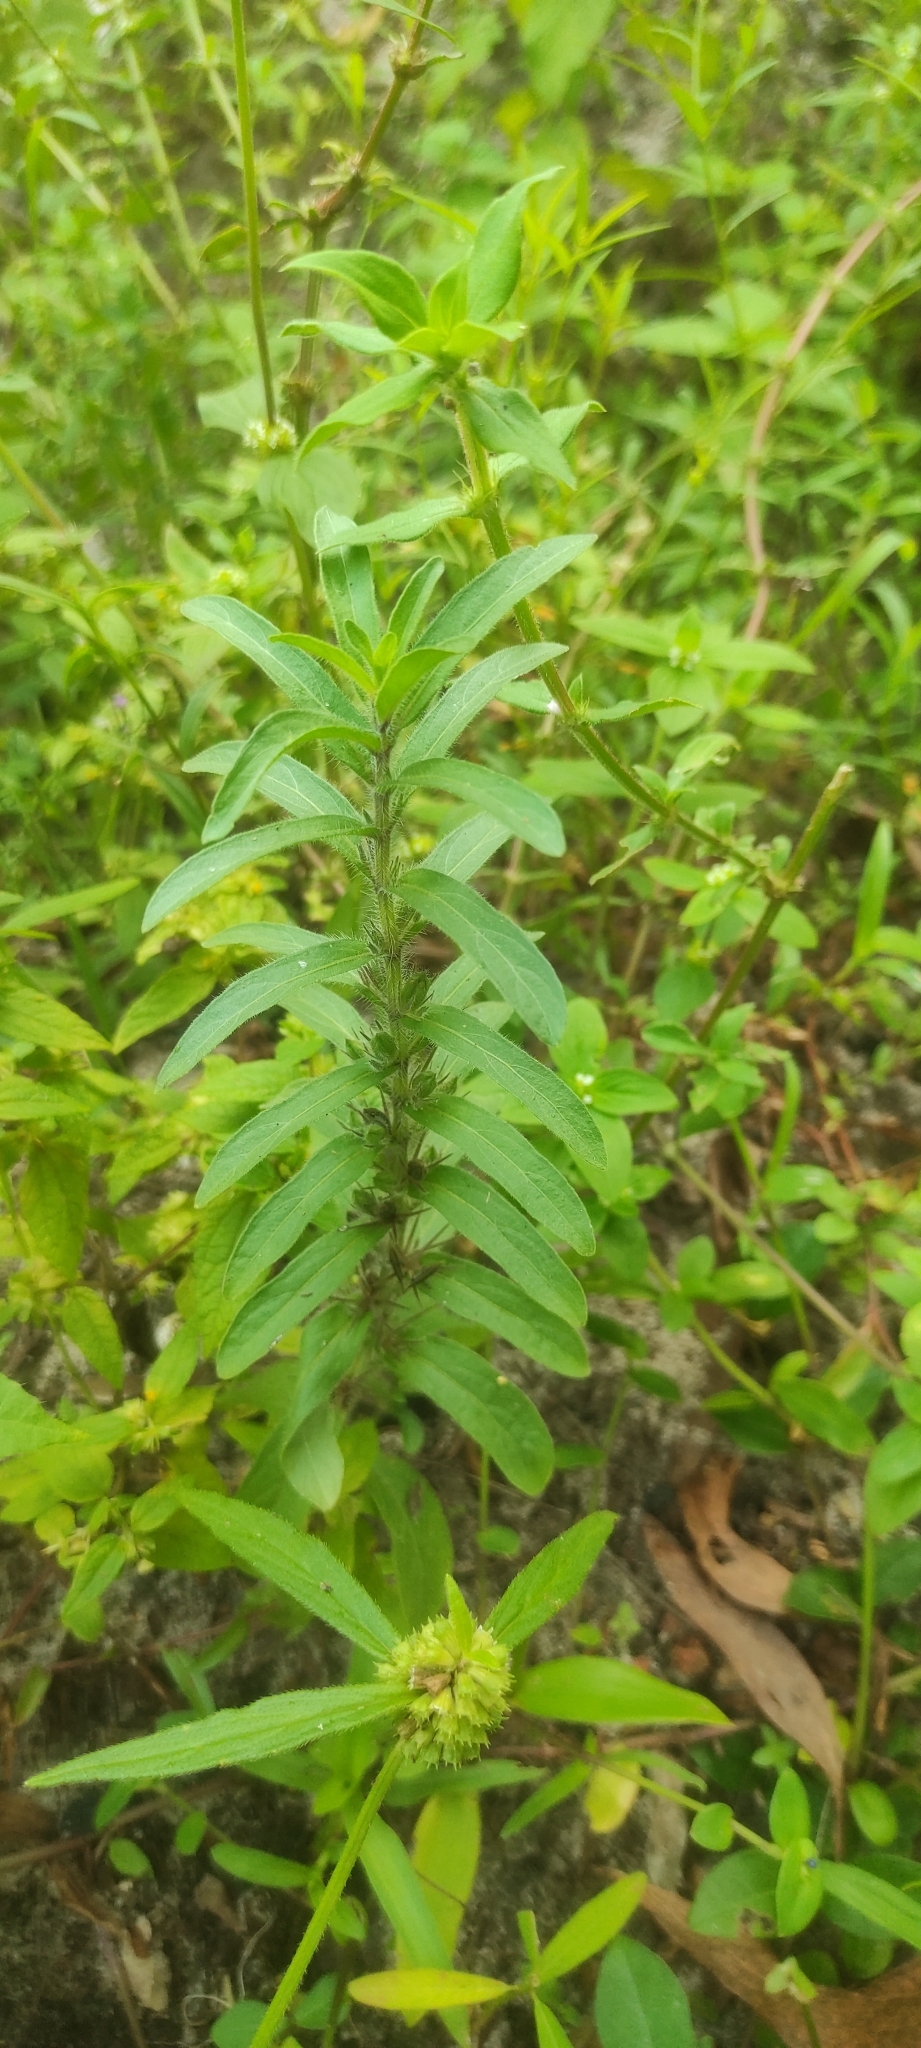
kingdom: Plantae
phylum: Tracheophyta
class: Magnoliopsida
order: Lamiales
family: Acanthaceae
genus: Andrographis
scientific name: Andrographis echioides
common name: False waterwillow
